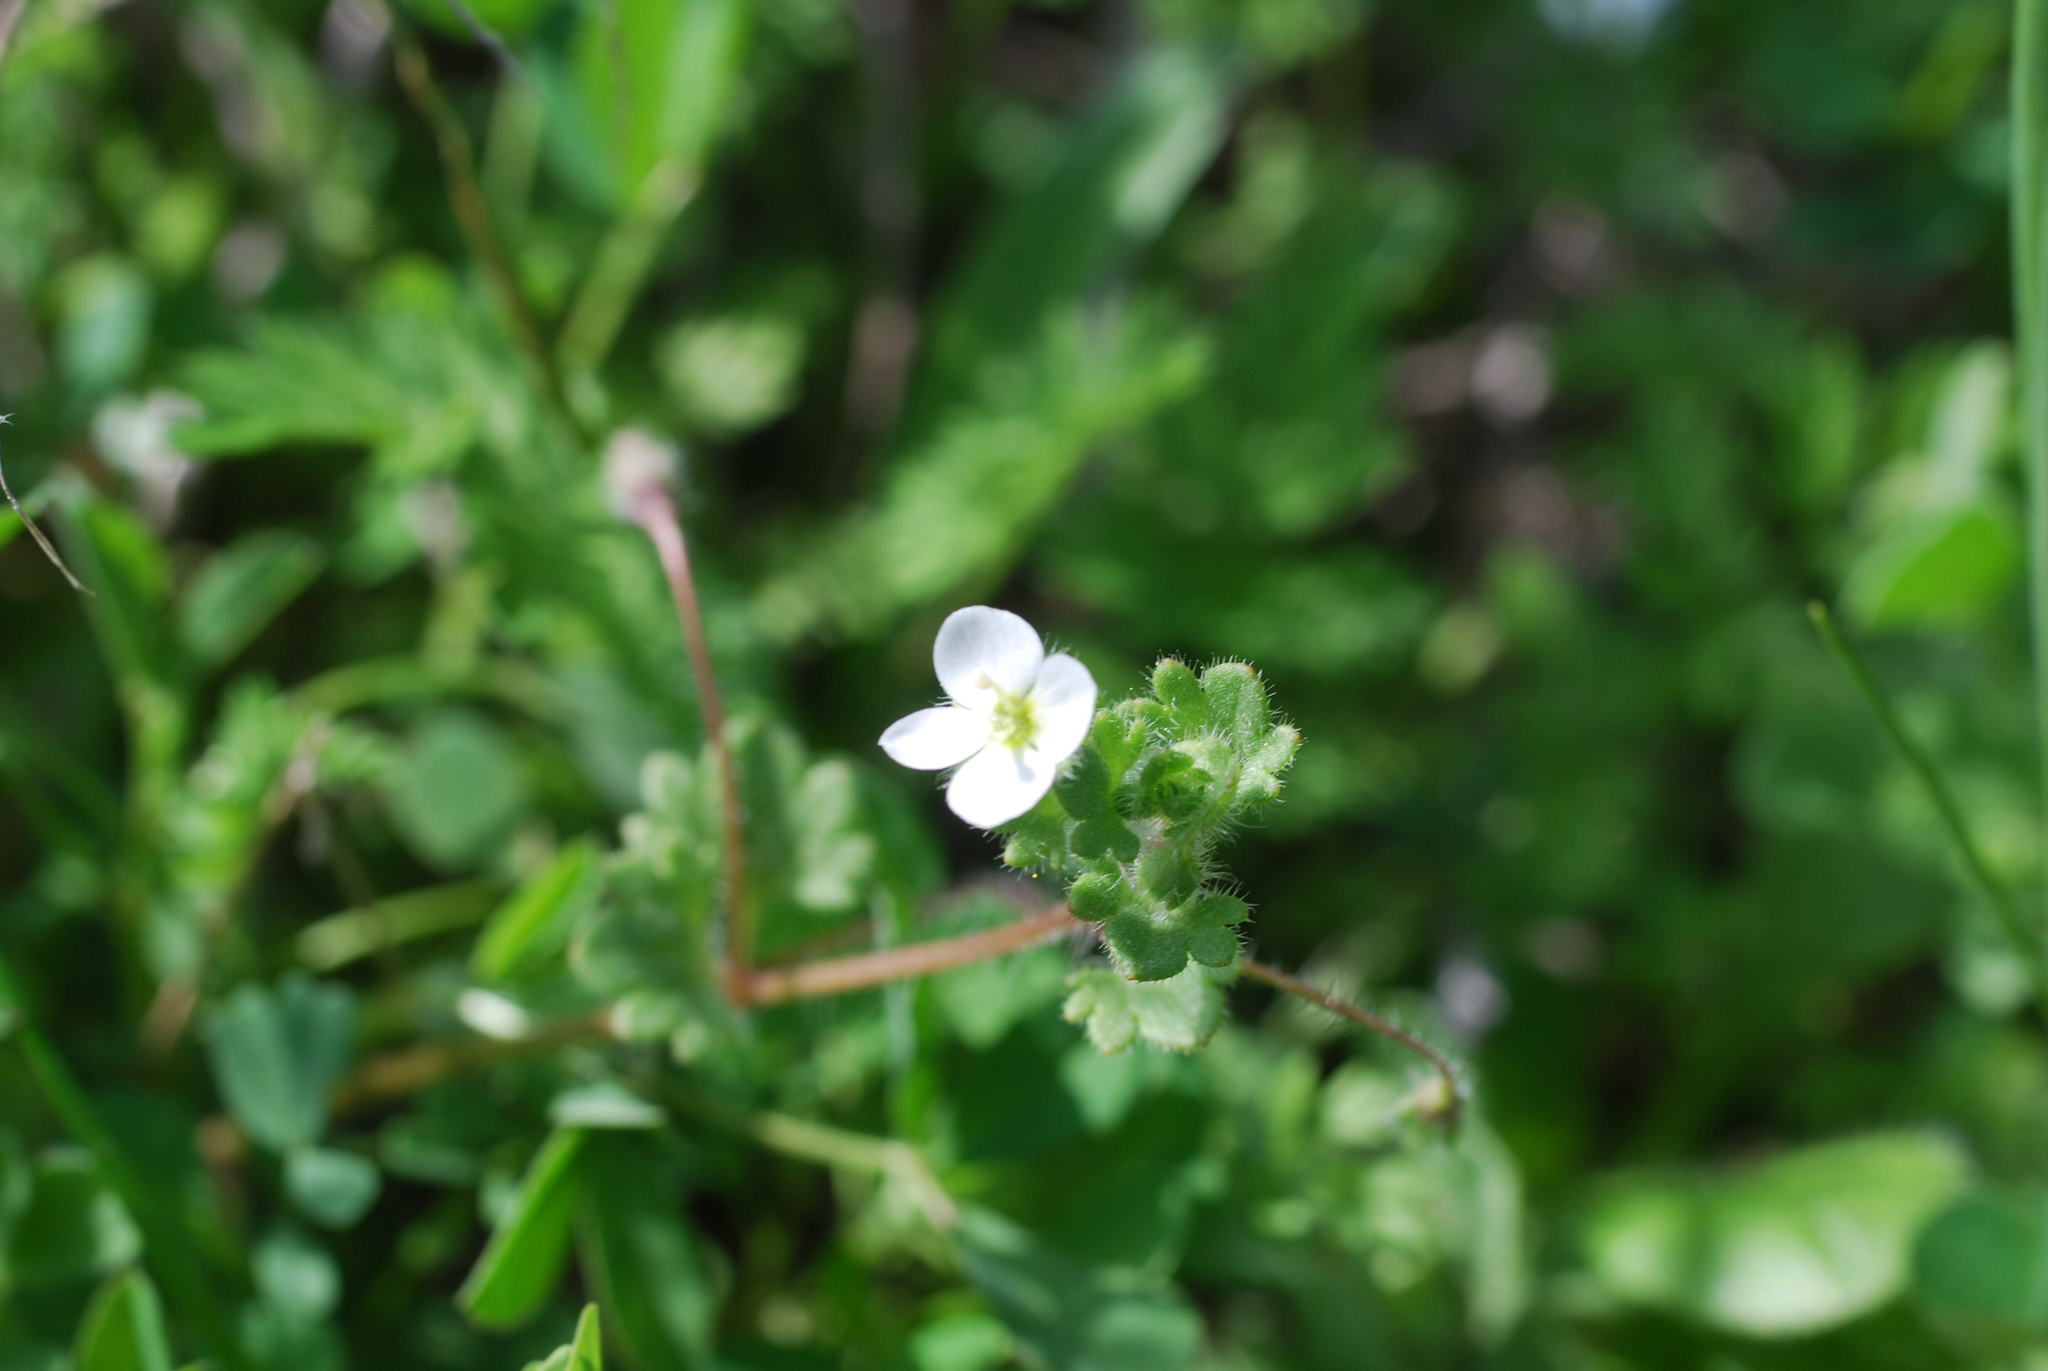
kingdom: Plantae
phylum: Tracheophyta
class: Magnoliopsida
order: Lamiales
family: Plantaginaceae
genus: Veronica
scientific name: Veronica cymbalaria
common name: Pale speedwell
